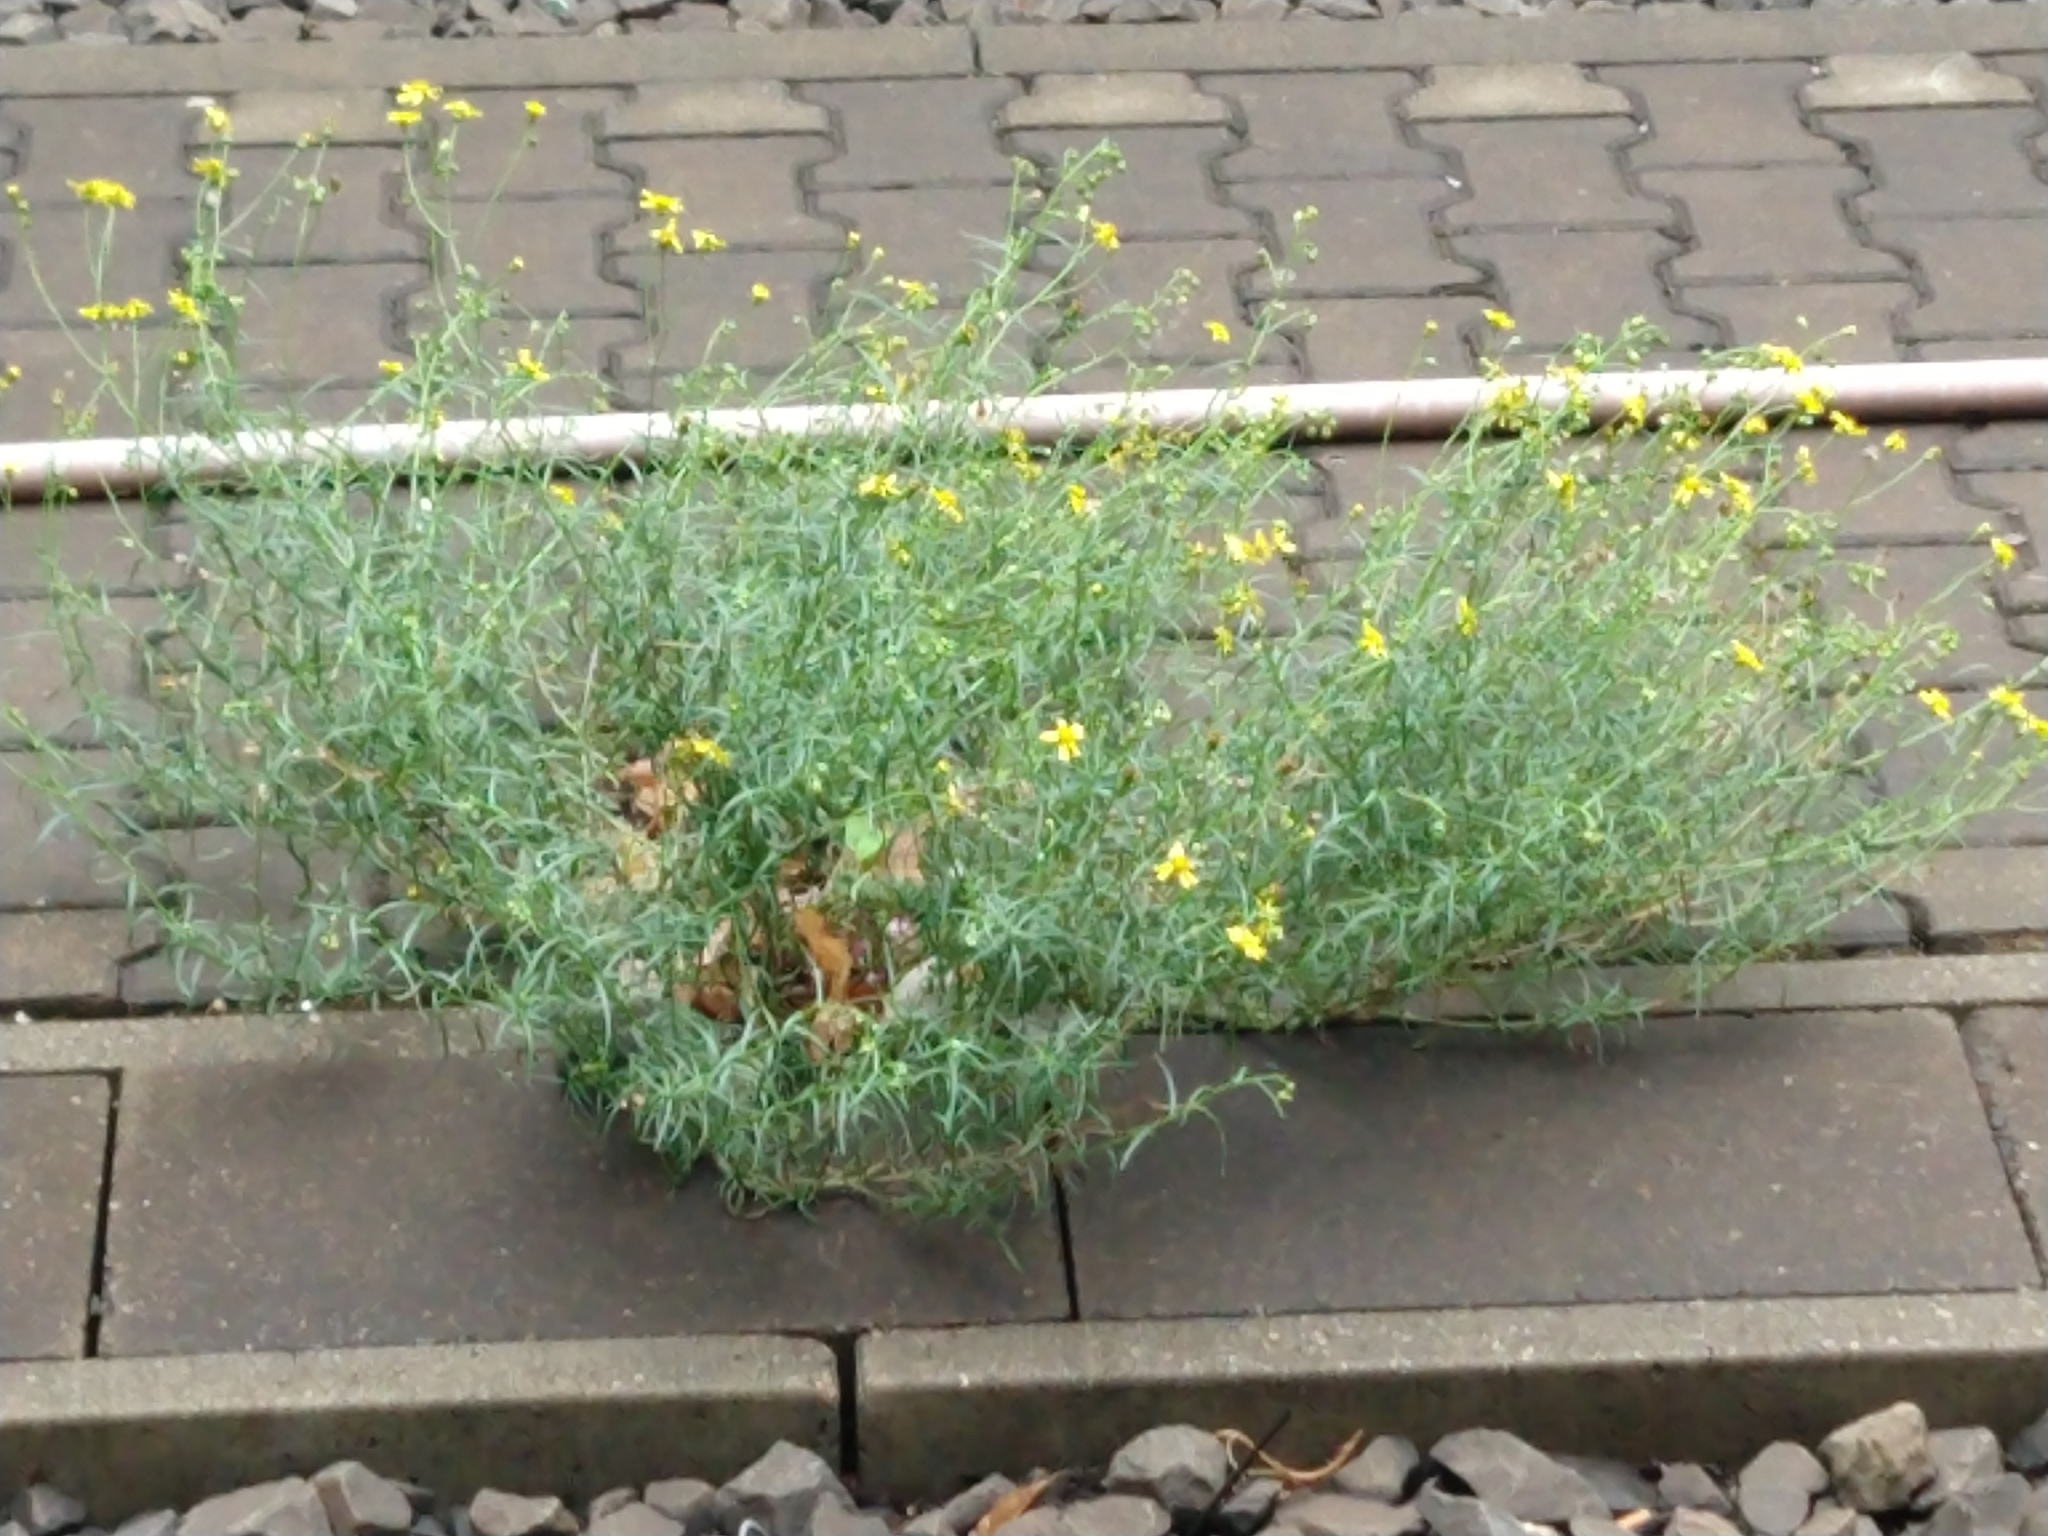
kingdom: Plantae
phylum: Tracheophyta
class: Magnoliopsida
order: Asterales
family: Asteraceae
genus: Senecio
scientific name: Senecio inaequidens
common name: Narrow-leaved ragwort
